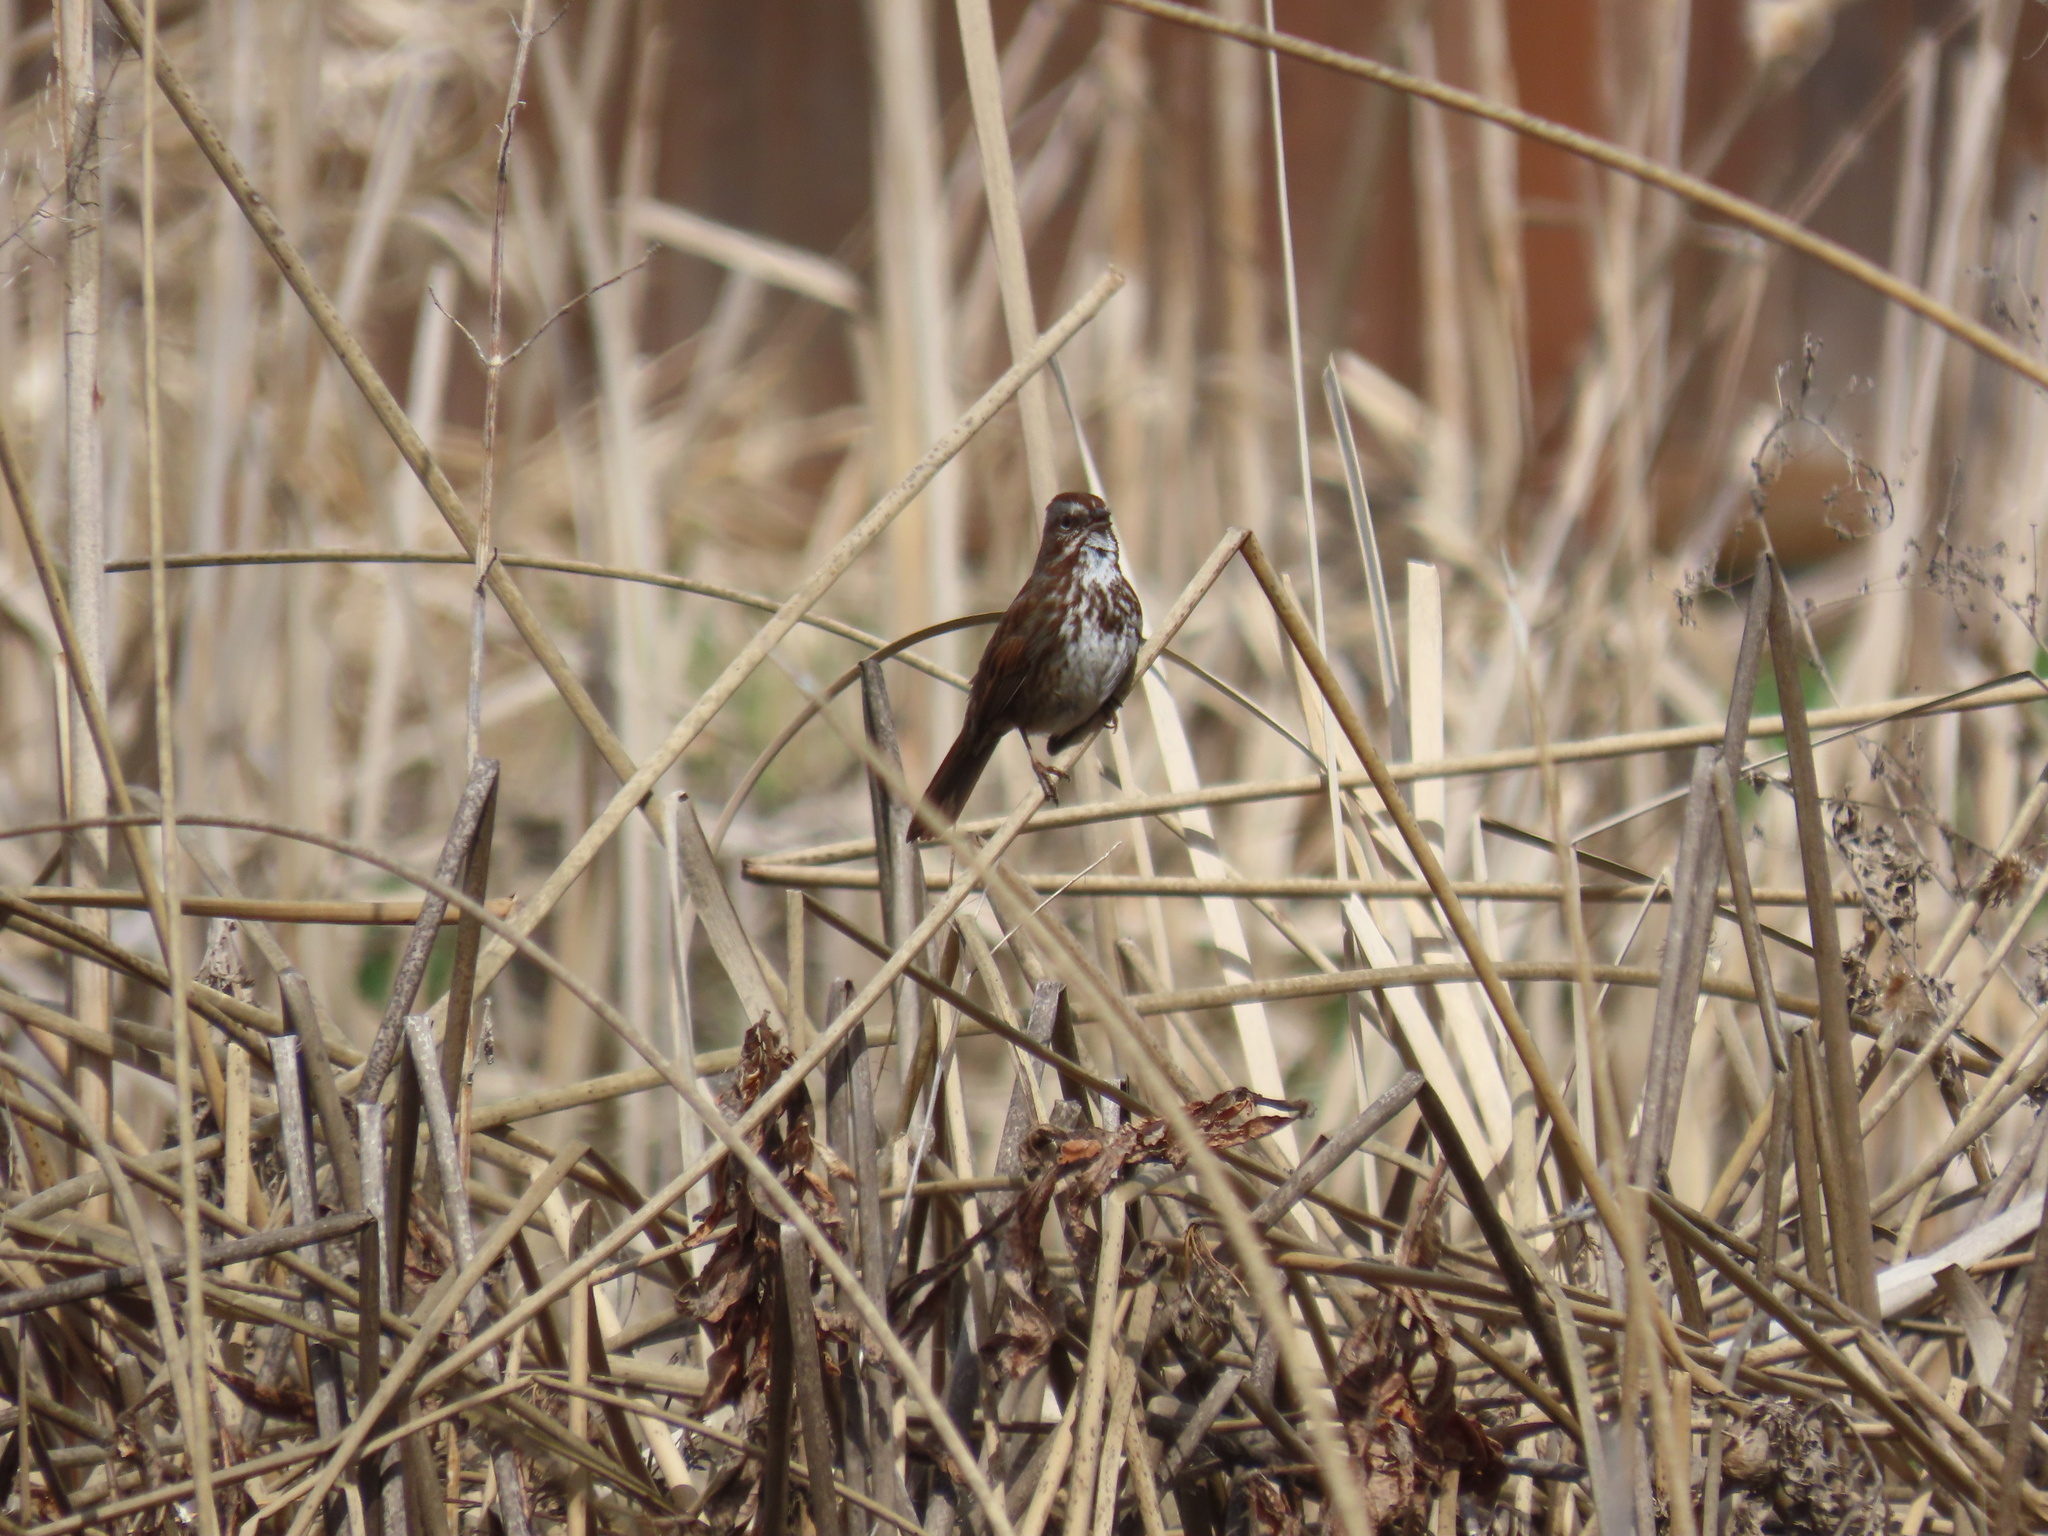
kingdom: Animalia
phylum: Chordata
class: Aves
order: Passeriformes
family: Passerellidae
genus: Melospiza
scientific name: Melospiza melodia
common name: Song sparrow
